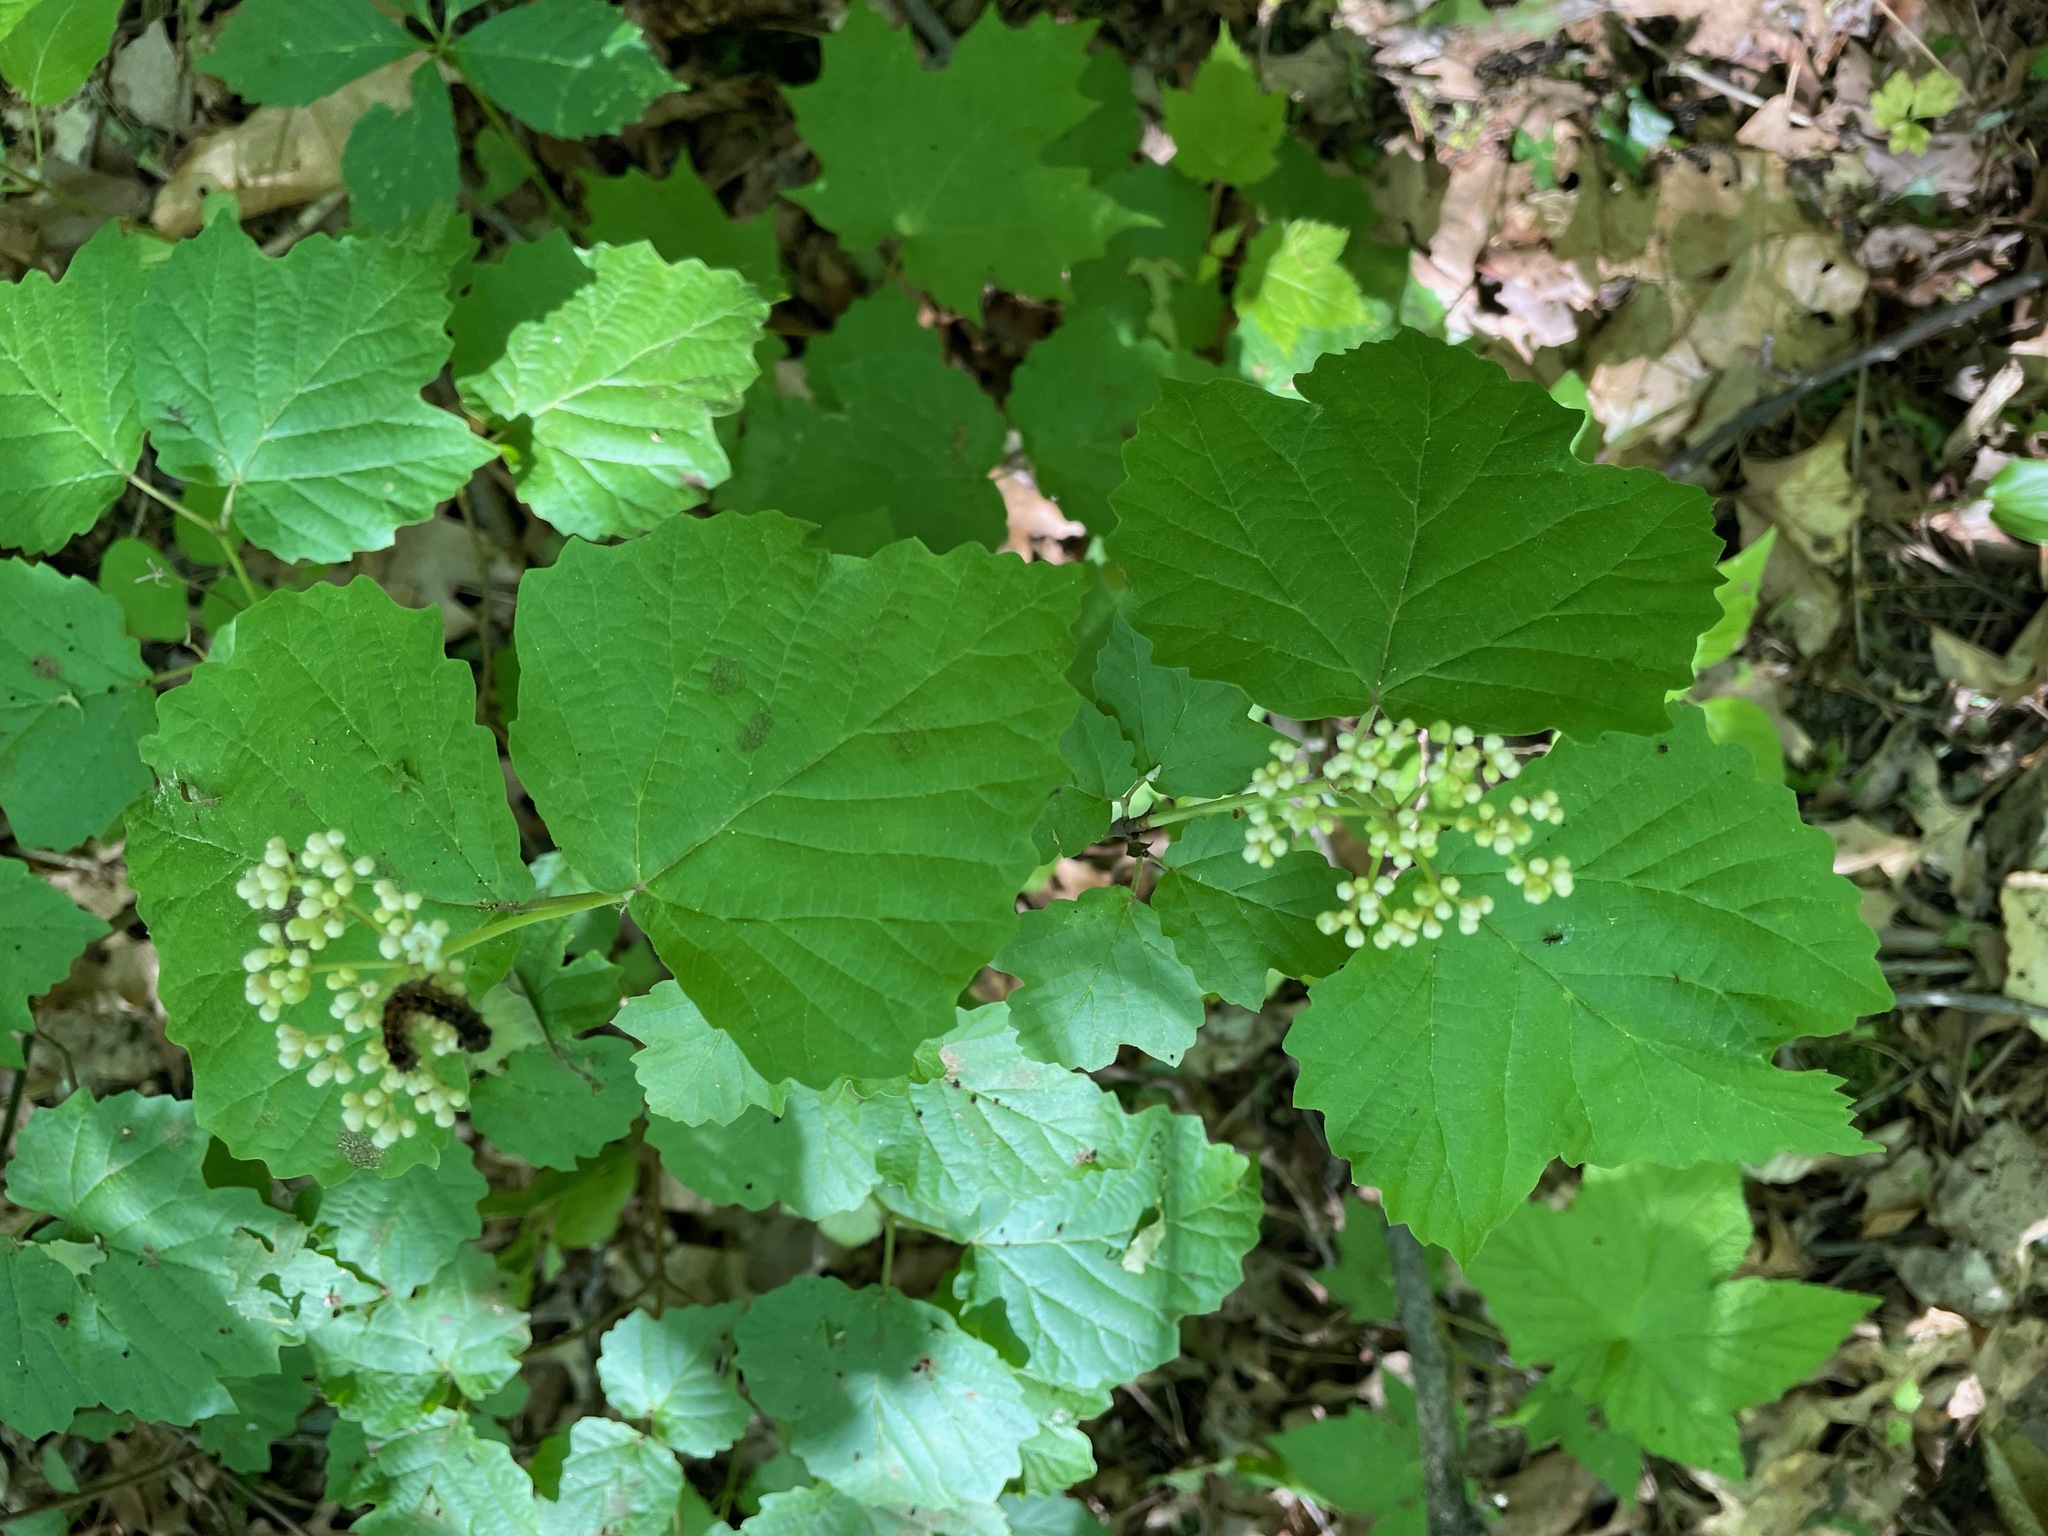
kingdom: Plantae
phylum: Tracheophyta
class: Magnoliopsida
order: Dipsacales
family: Viburnaceae
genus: Viburnum
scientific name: Viburnum acerifolium
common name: Dockmackie
